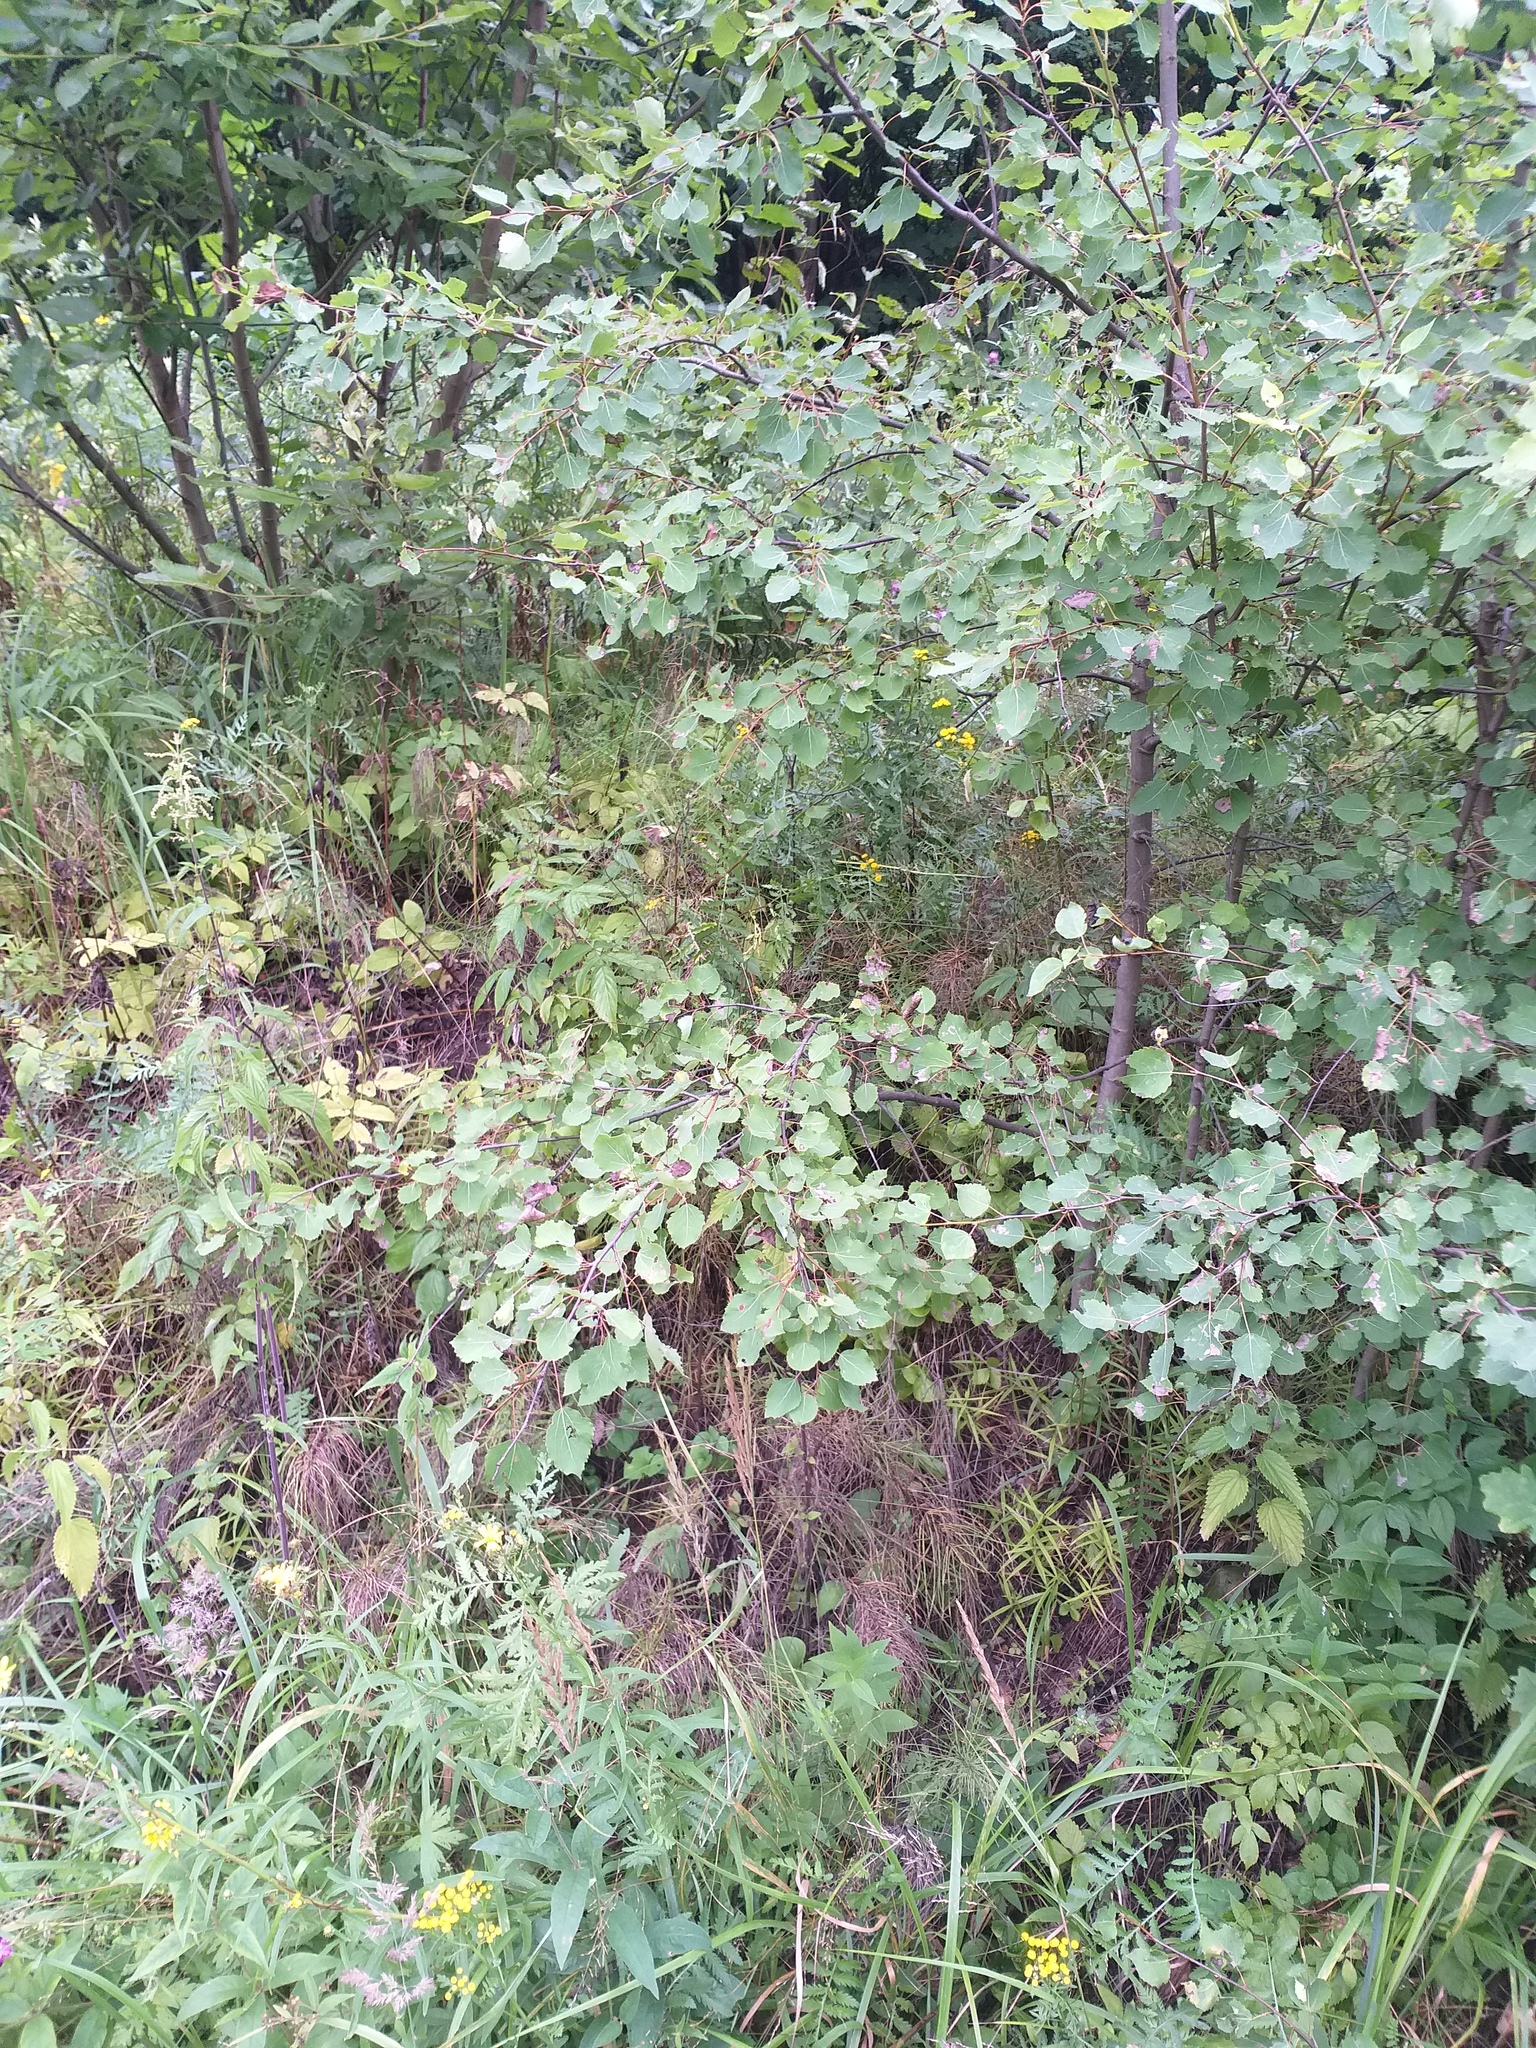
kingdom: Plantae
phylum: Tracheophyta
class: Magnoliopsida
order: Malpighiales
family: Salicaceae
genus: Populus
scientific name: Populus tremula
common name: European aspen
